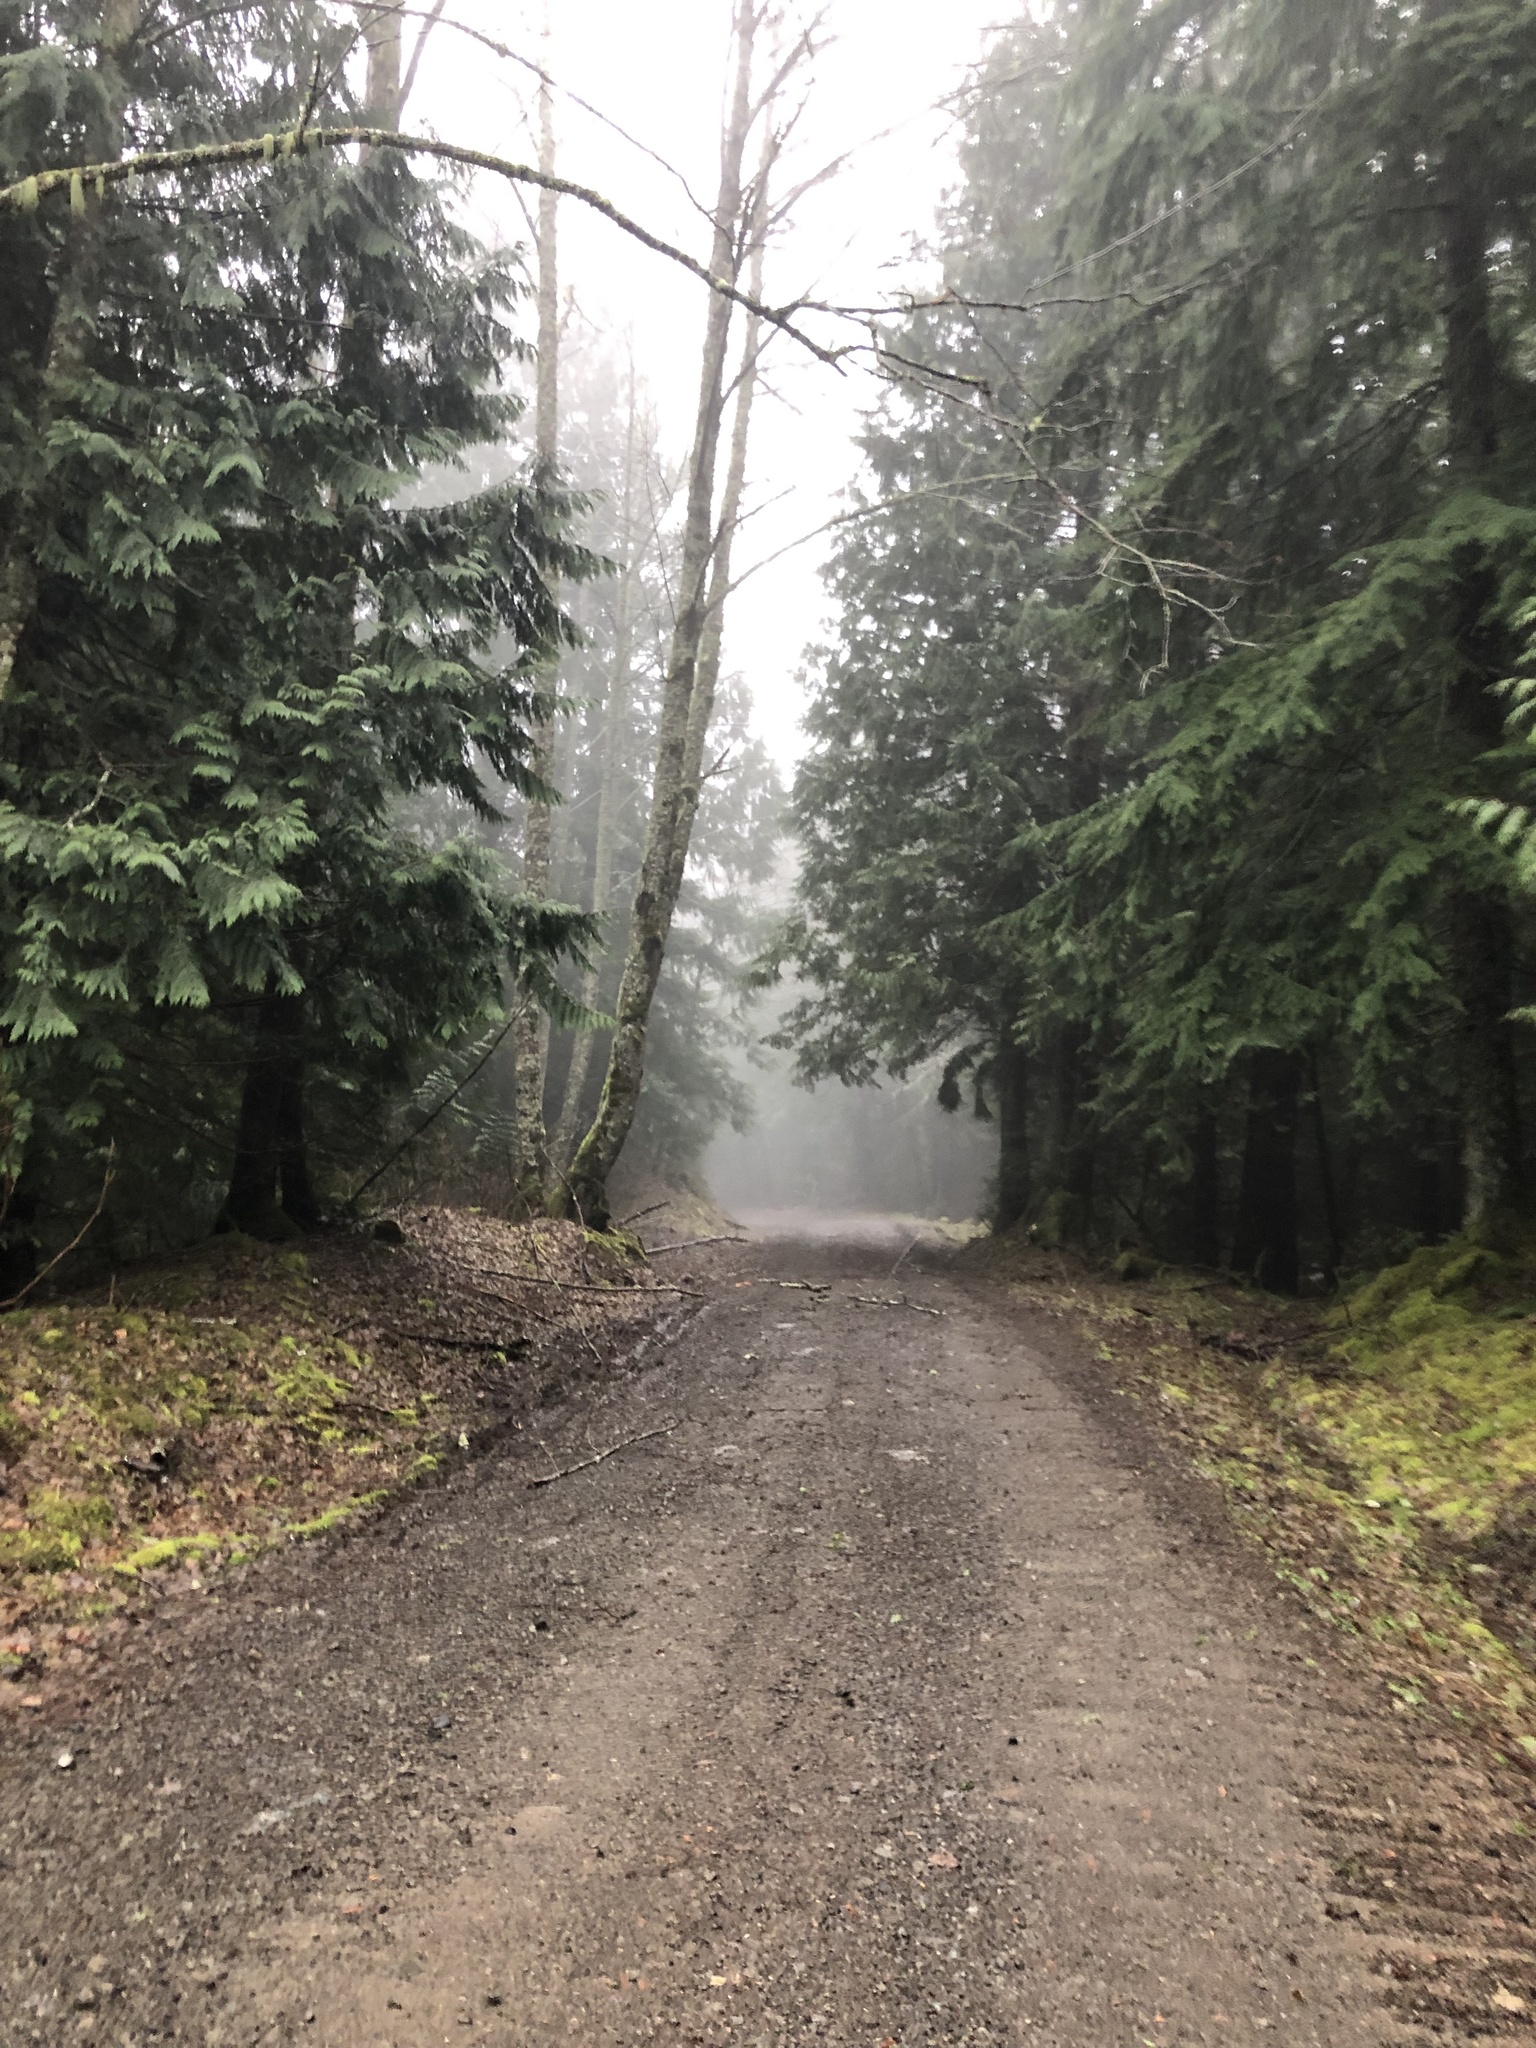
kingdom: Plantae
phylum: Tracheophyta
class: Pinopsida
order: Pinales
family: Cupressaceae
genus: Thuja
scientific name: Thuja plicata
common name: Western red-cedar
